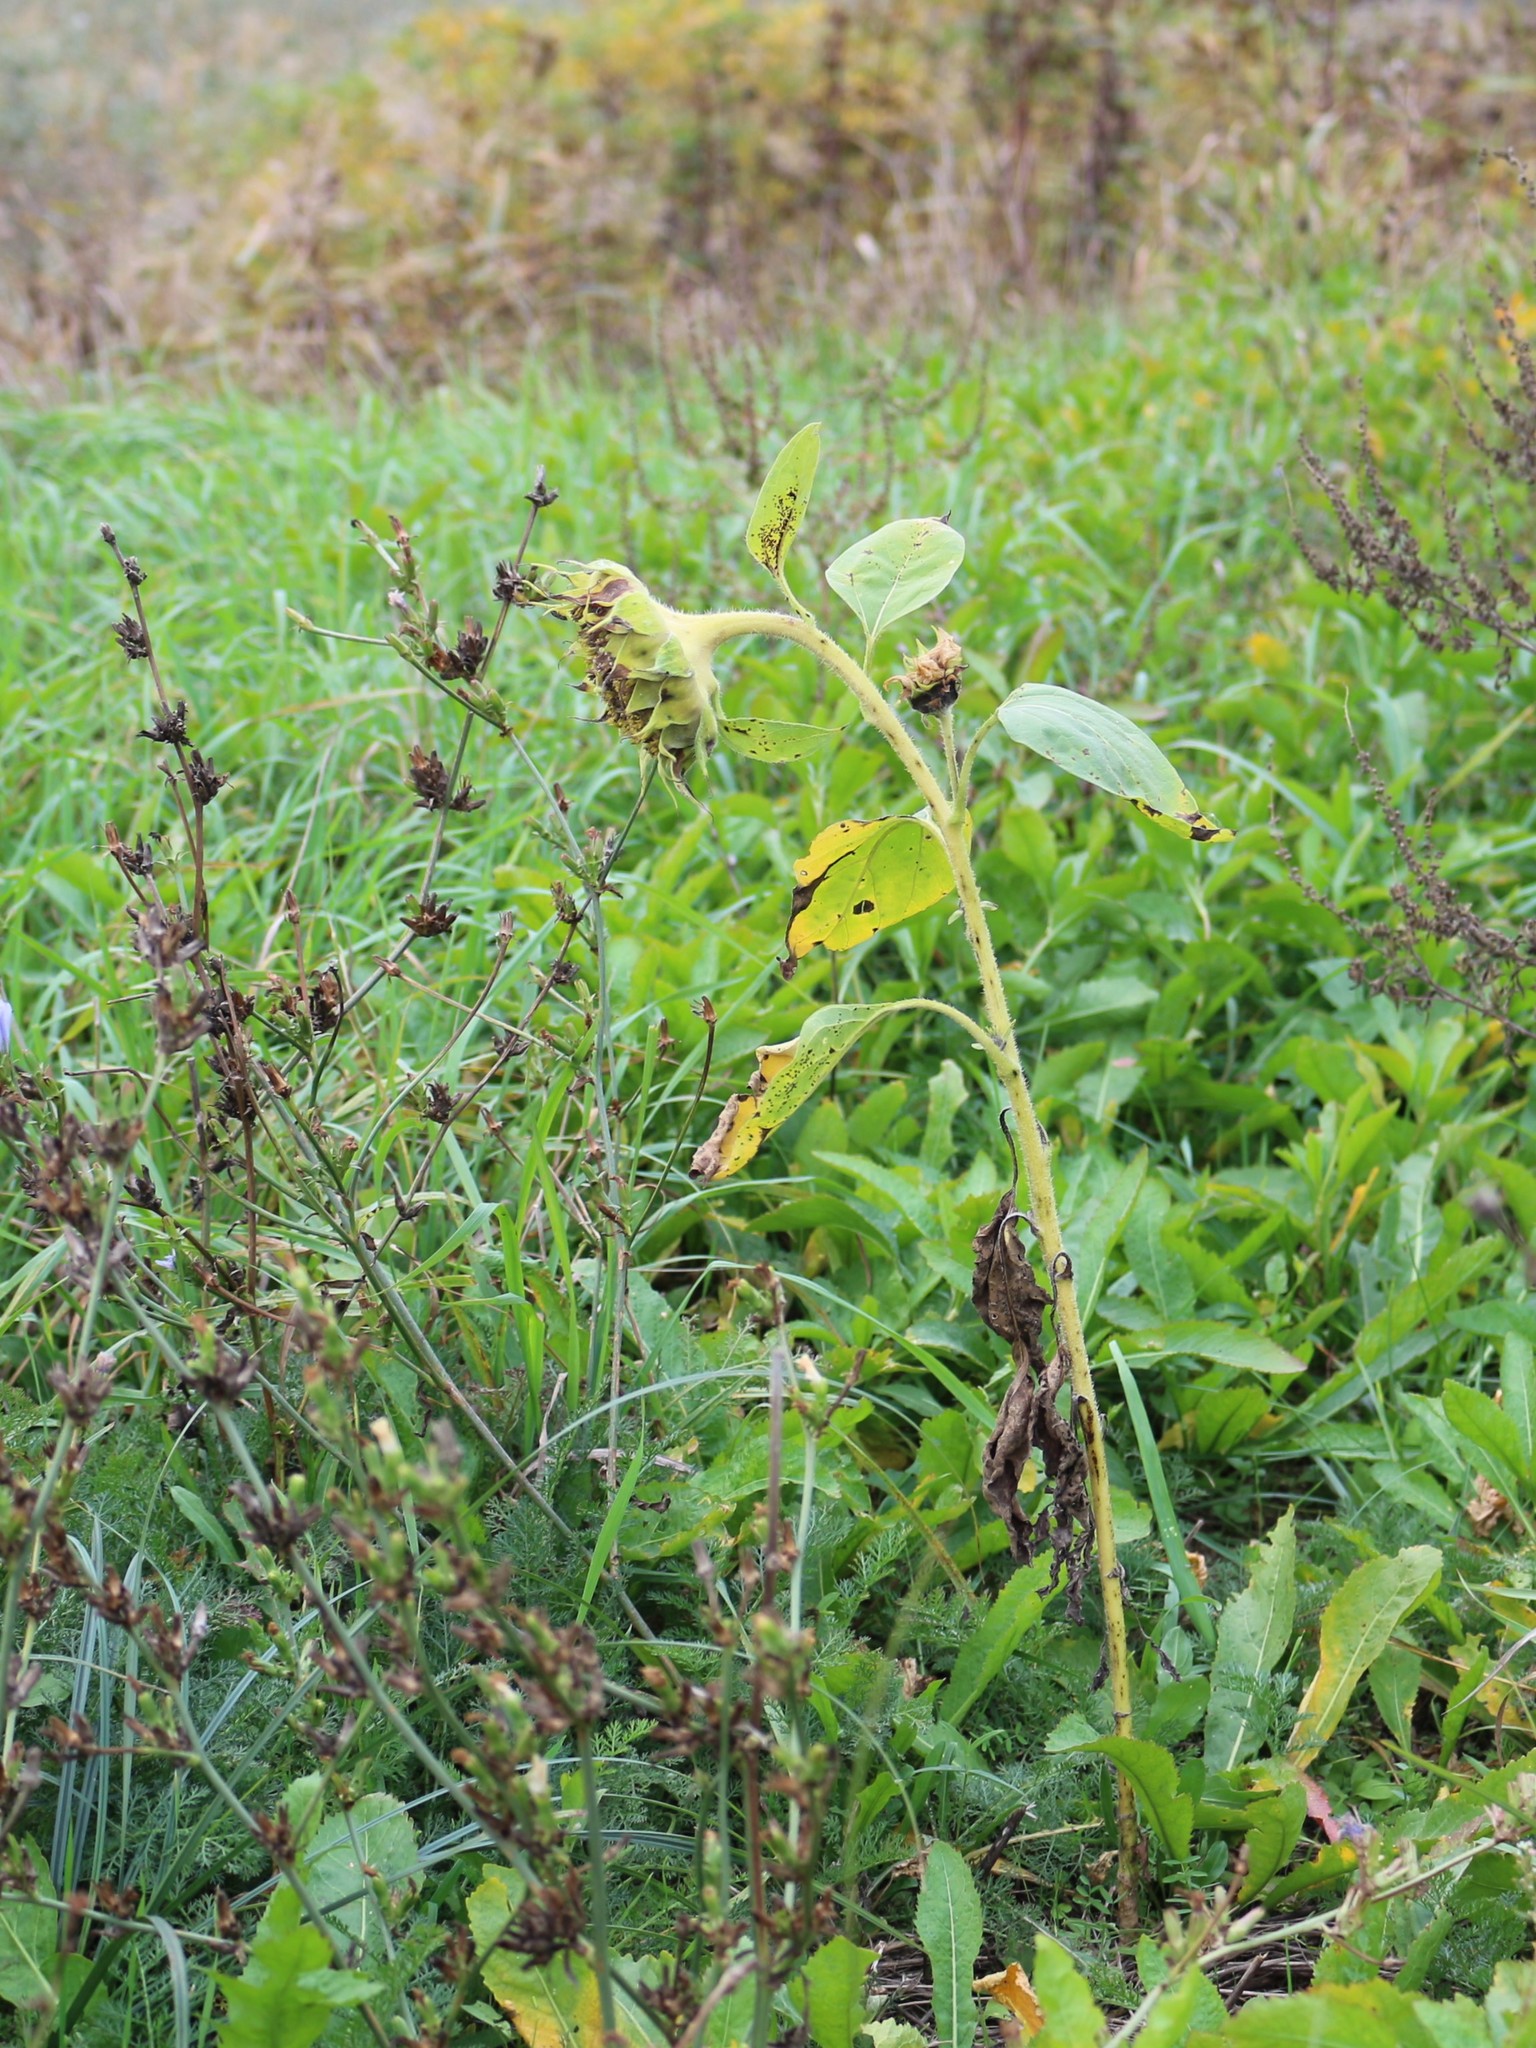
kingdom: Plantae
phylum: Tracheophyta
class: Magnoliopsida
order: Asterales
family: Asteraceae
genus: Helianthus
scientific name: Helianthus annuus
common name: Sunflower
